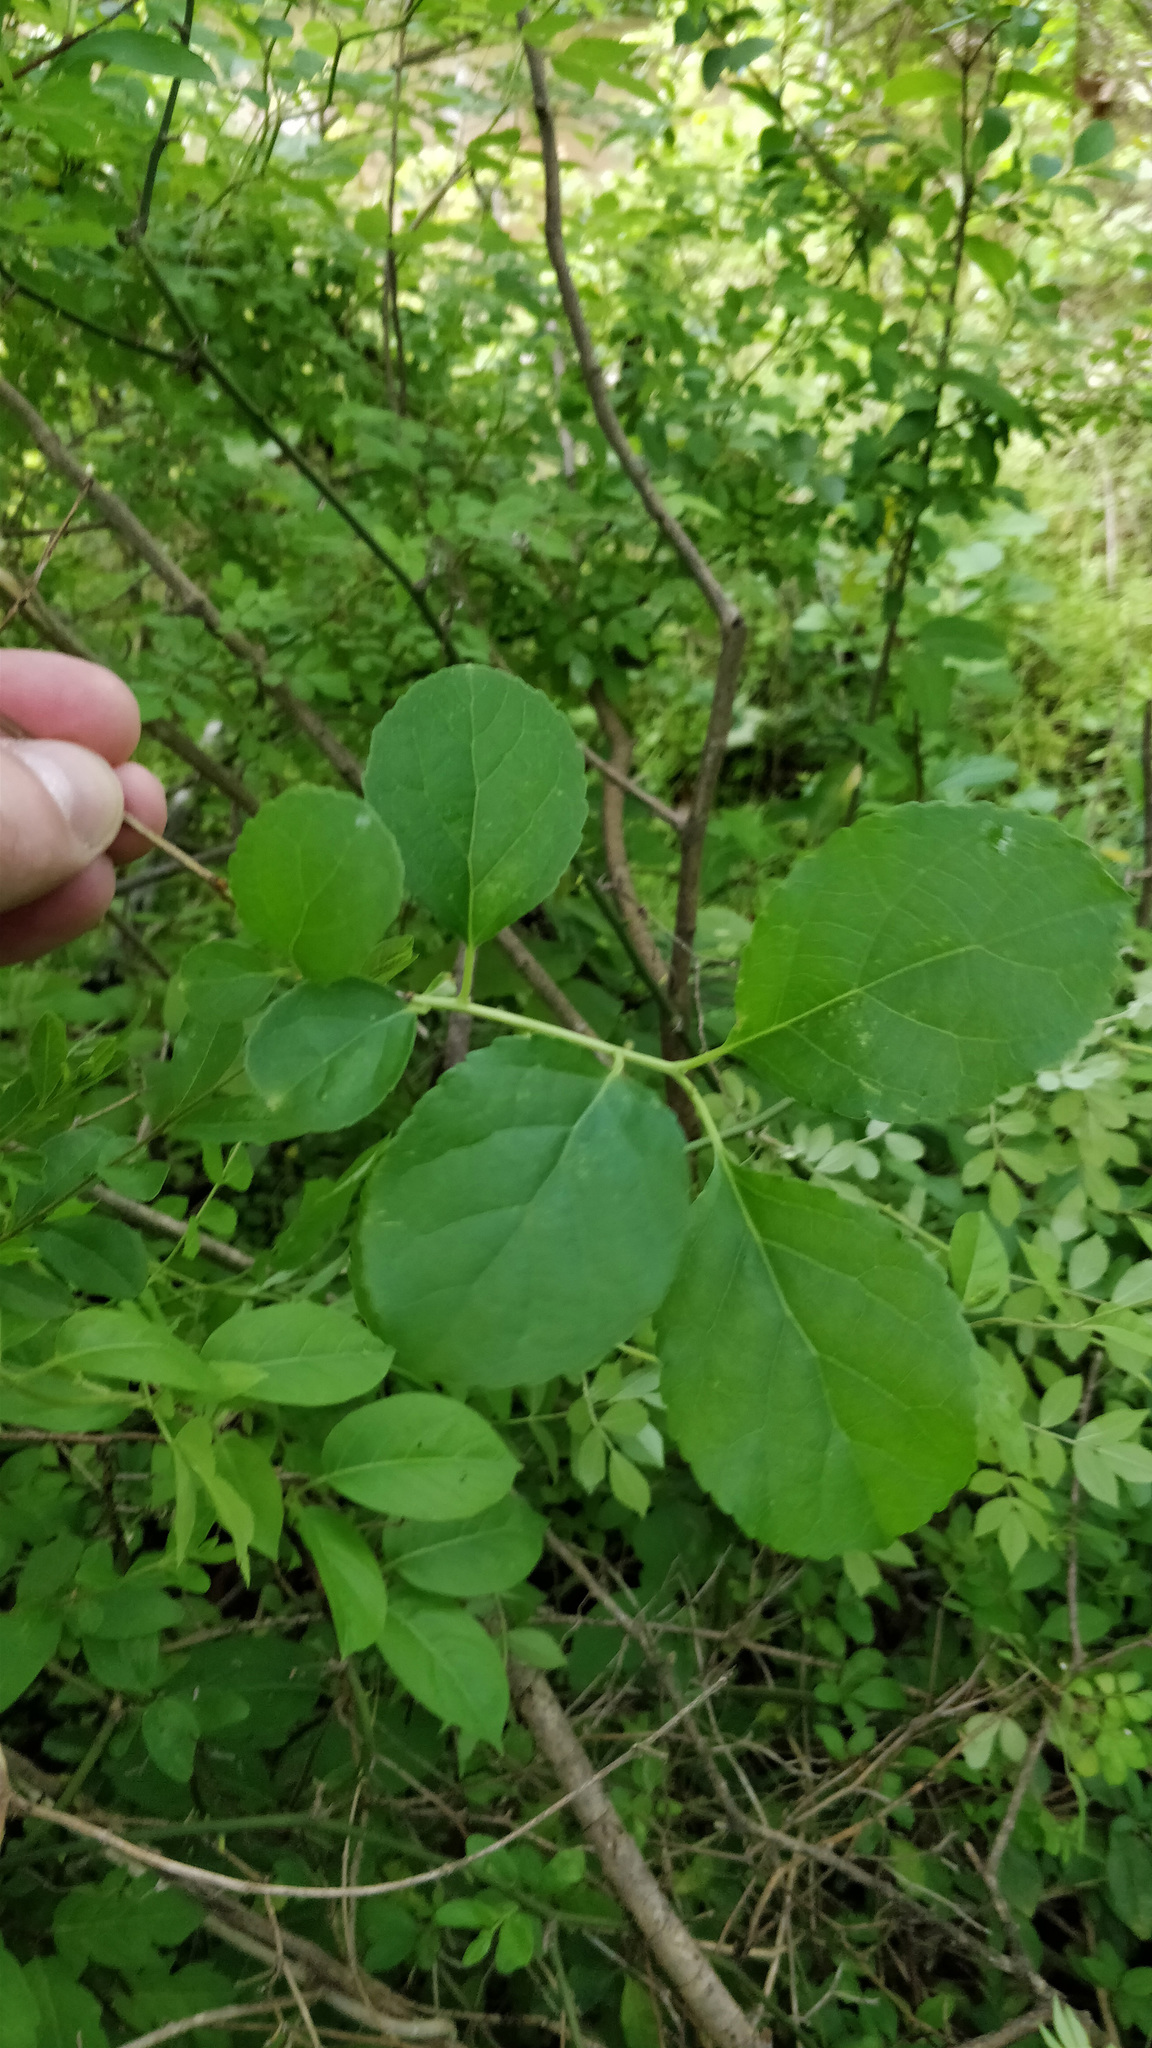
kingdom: Plantae
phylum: Tracheophyta
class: Magnoliopsida
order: Celastrales
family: Celastraceae
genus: Celastrus
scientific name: Celastrus orbiculatus
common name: Oriental bittersweet
